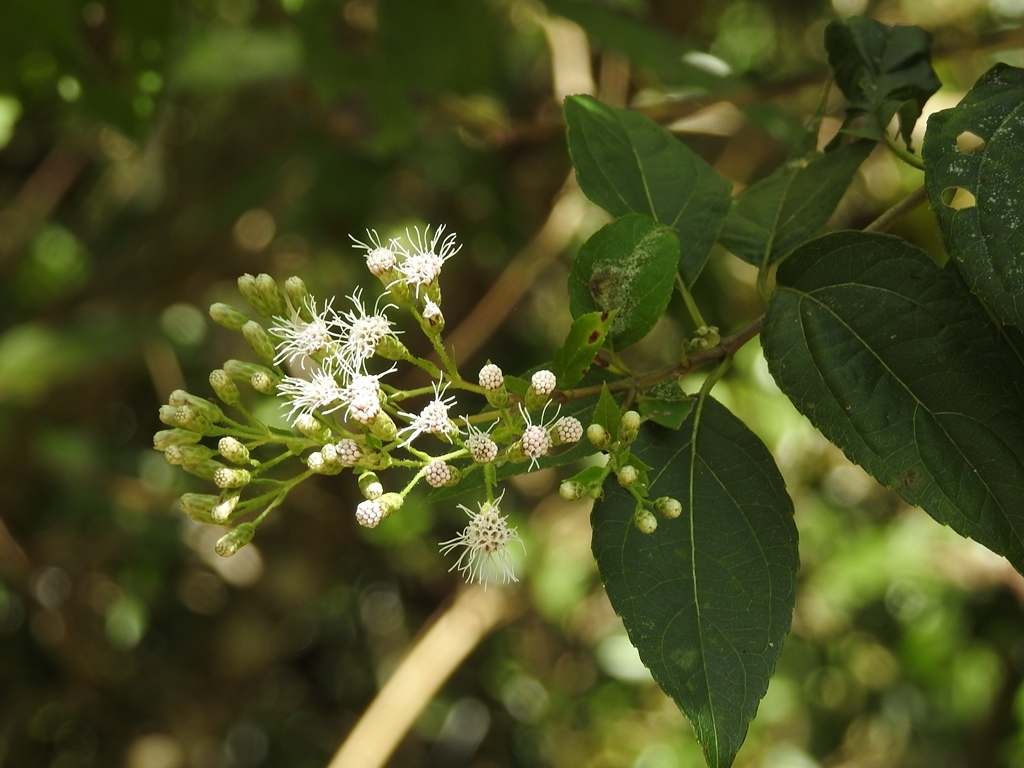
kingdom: Plantae
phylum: Tracheophyta
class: Magnoliopsida
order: Asterales
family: Asteraceae
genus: Ageratina
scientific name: Ageratina pichinchensis
